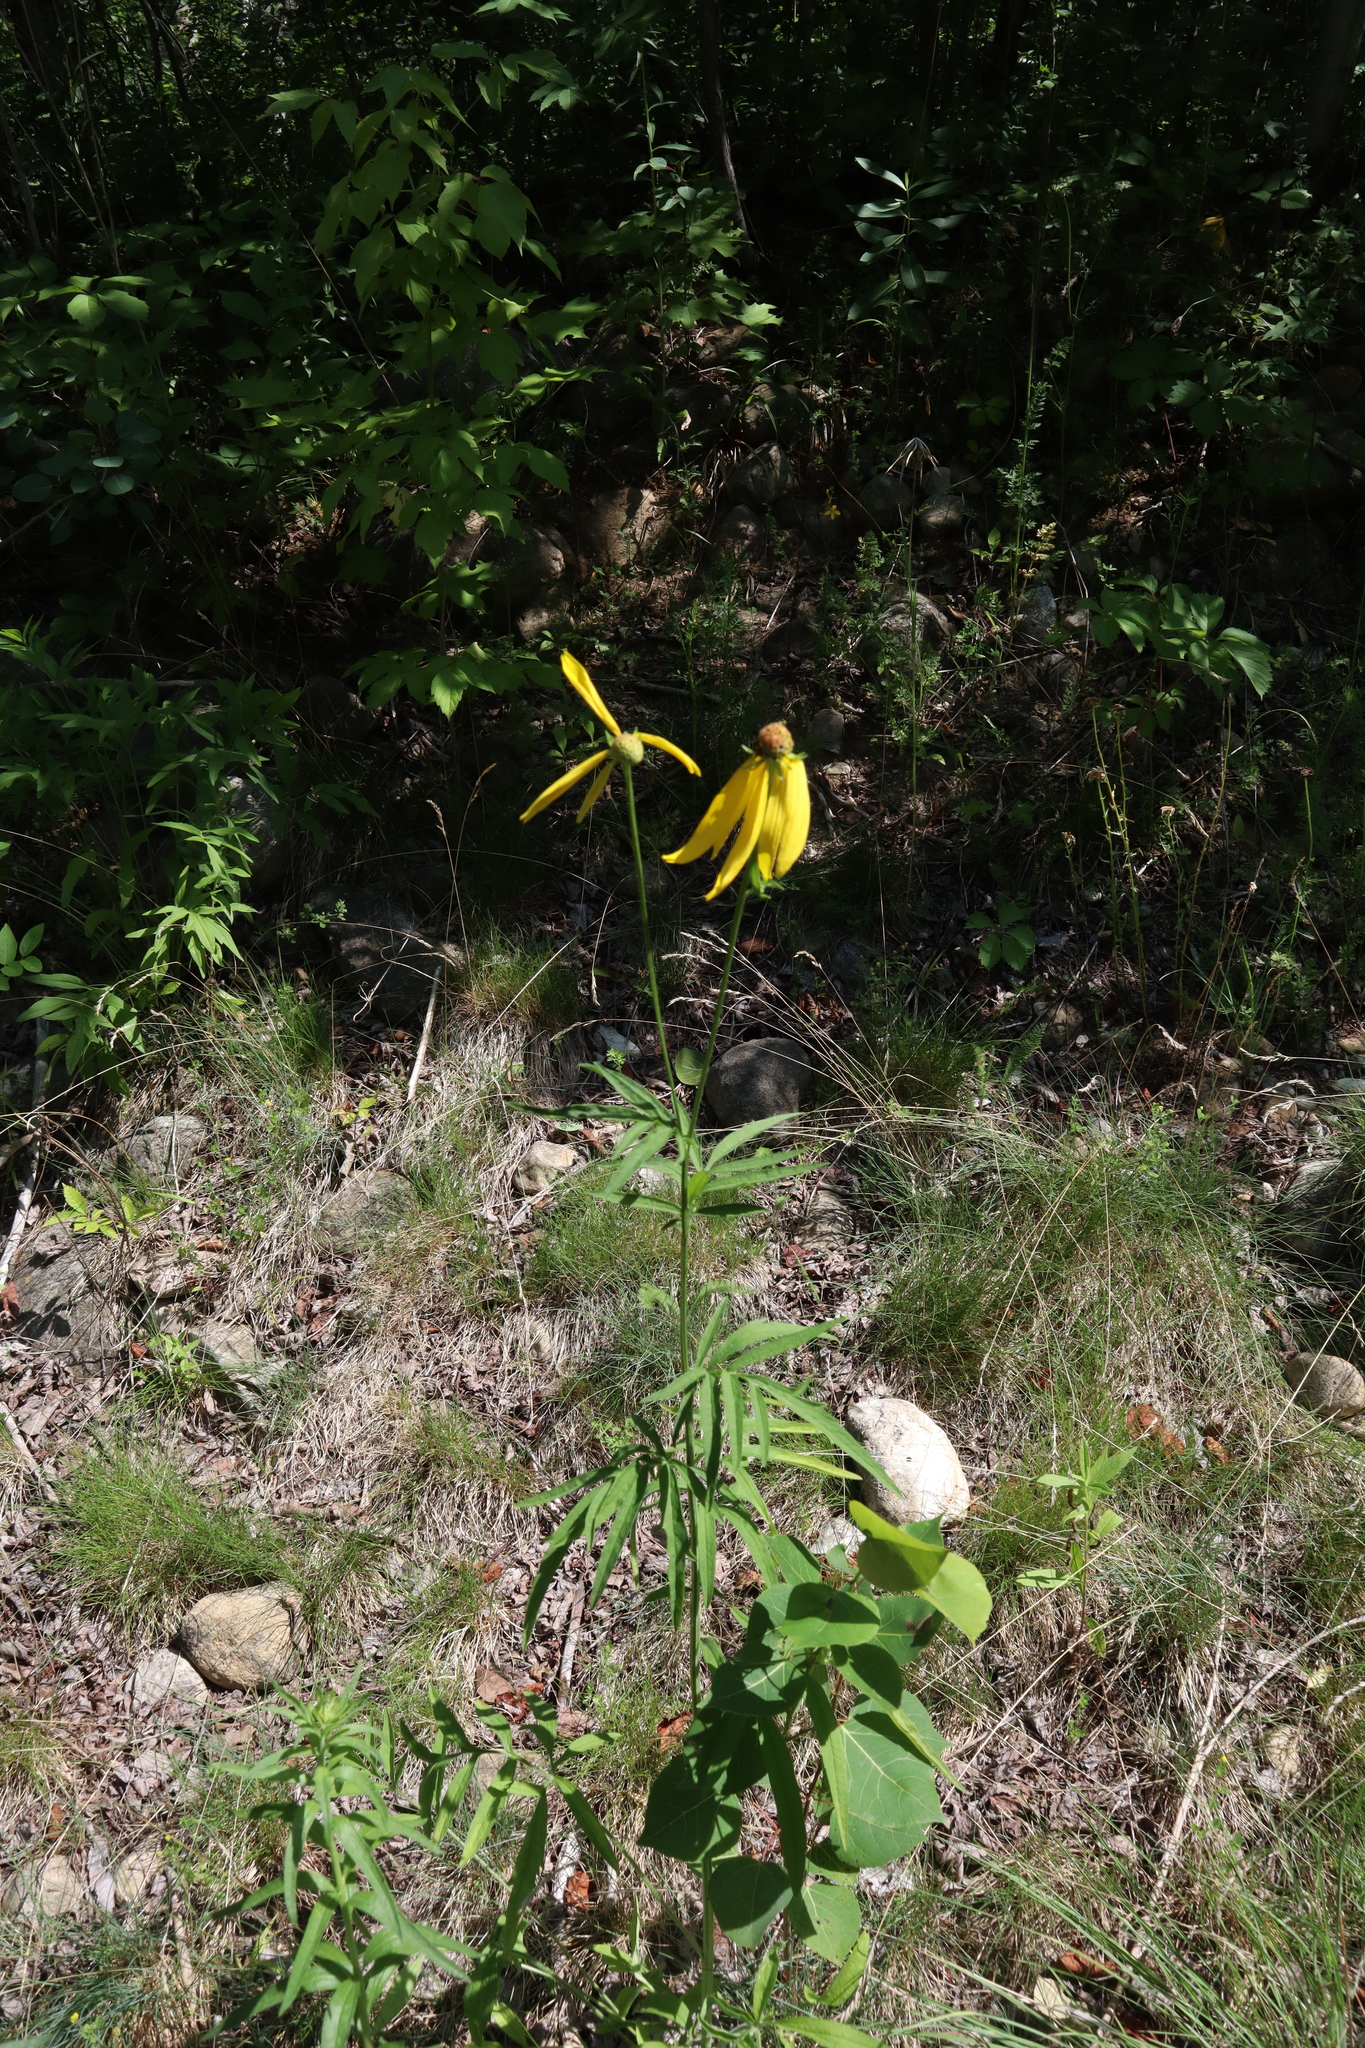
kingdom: Plantae
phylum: Tracheophyta
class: Magnoliopsida
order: Asterales
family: Asteraceae
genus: Ratibida
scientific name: Ratibida pinnata
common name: Drooping prairie-coneflower
